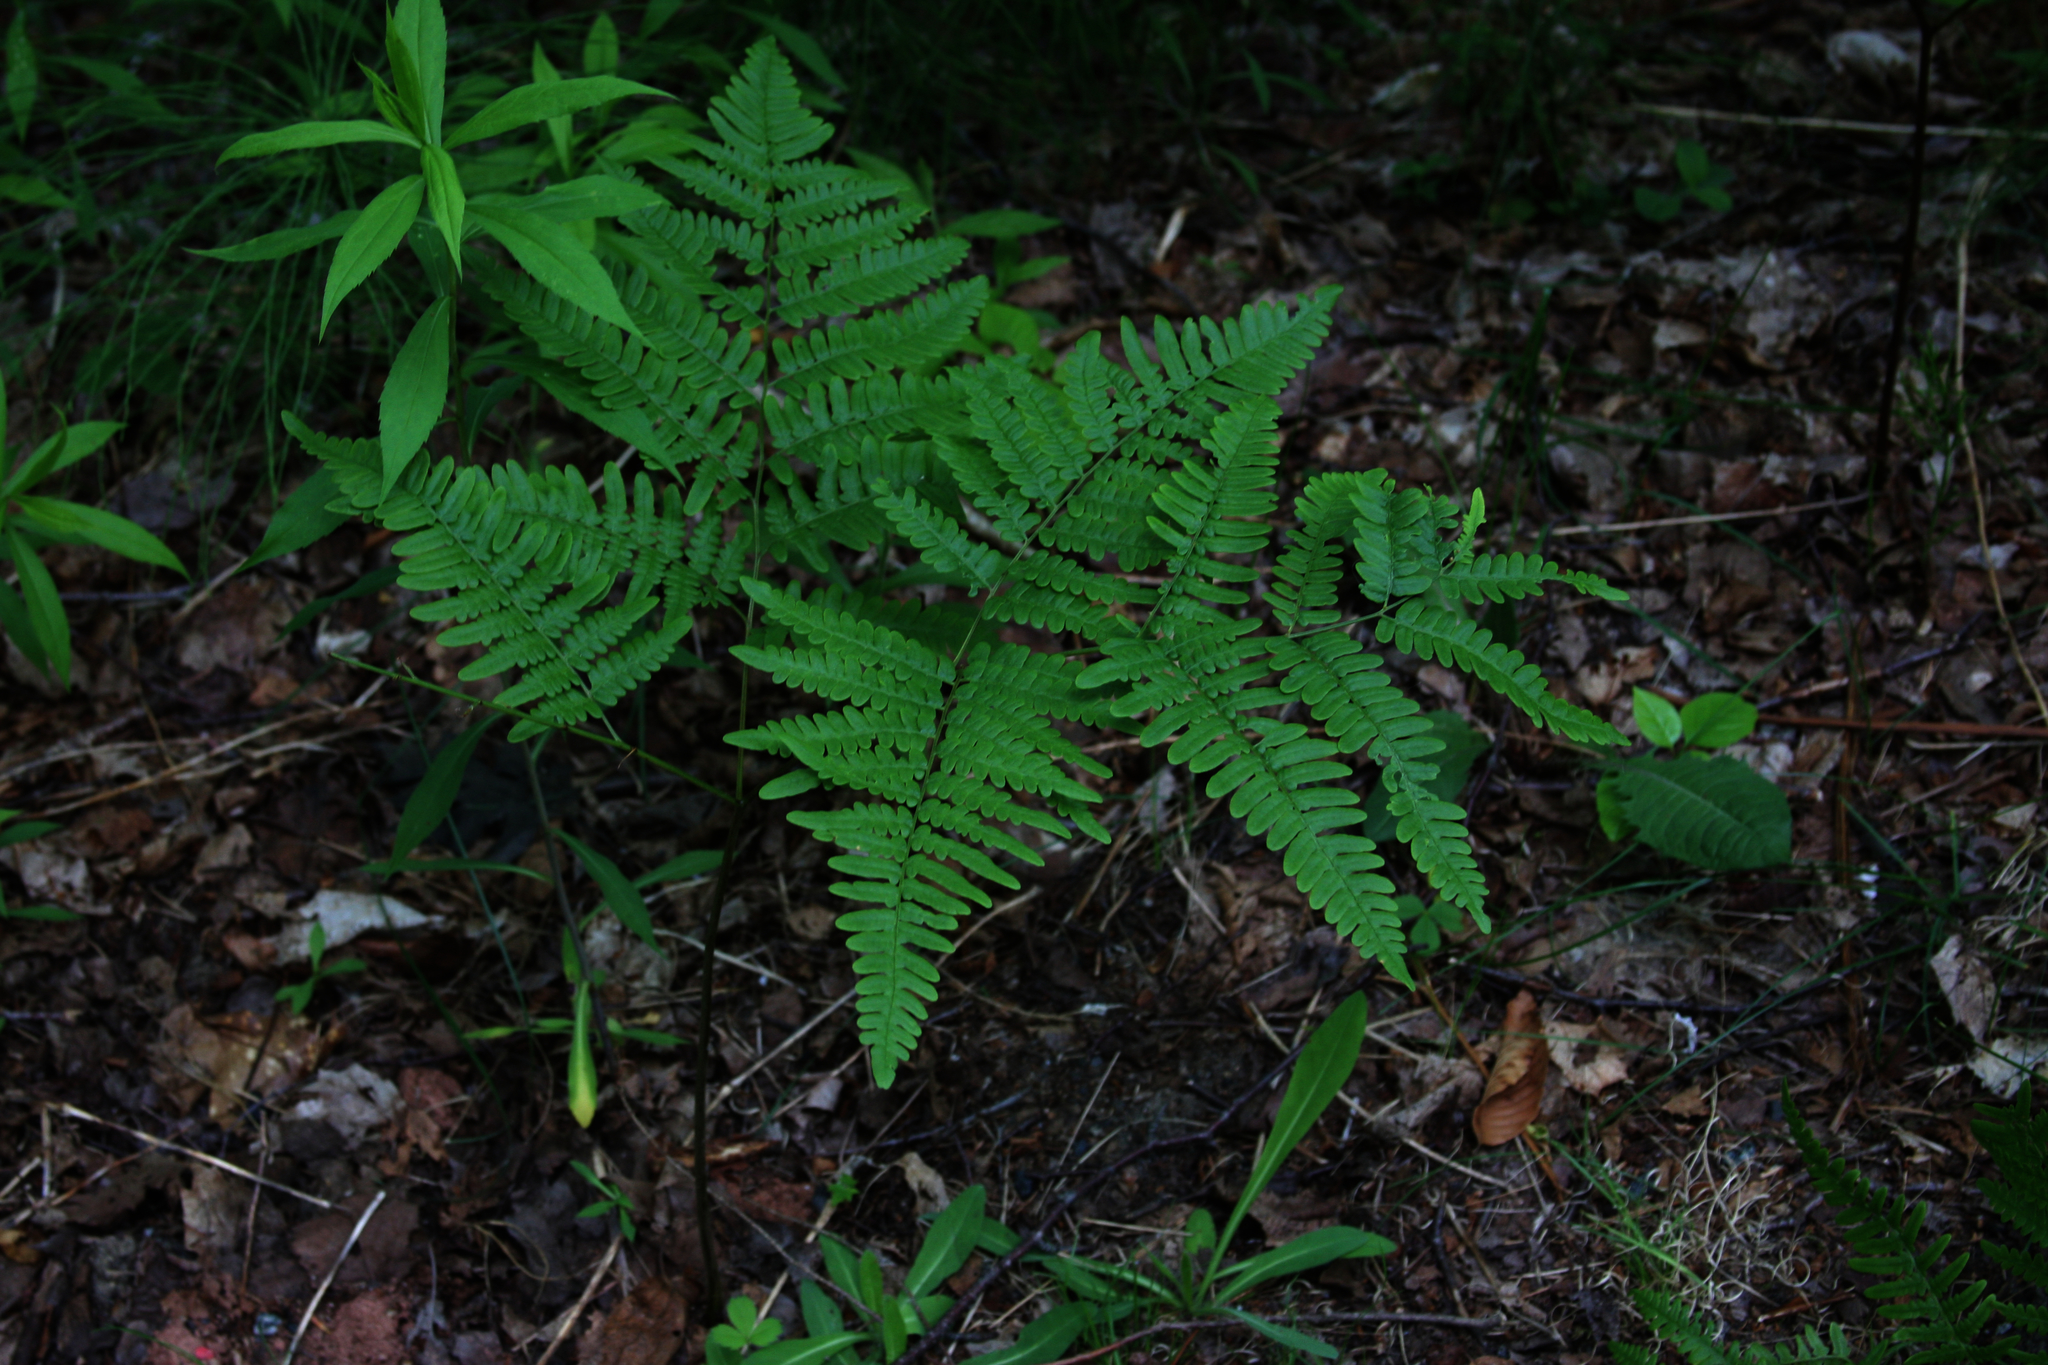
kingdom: Plantae
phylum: Tracheophyta
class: Polypodiopsida
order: Polypodiales
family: Dennstaedtiaceae
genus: Pteridium
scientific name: Pteridium aquilinum
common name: Bracken
